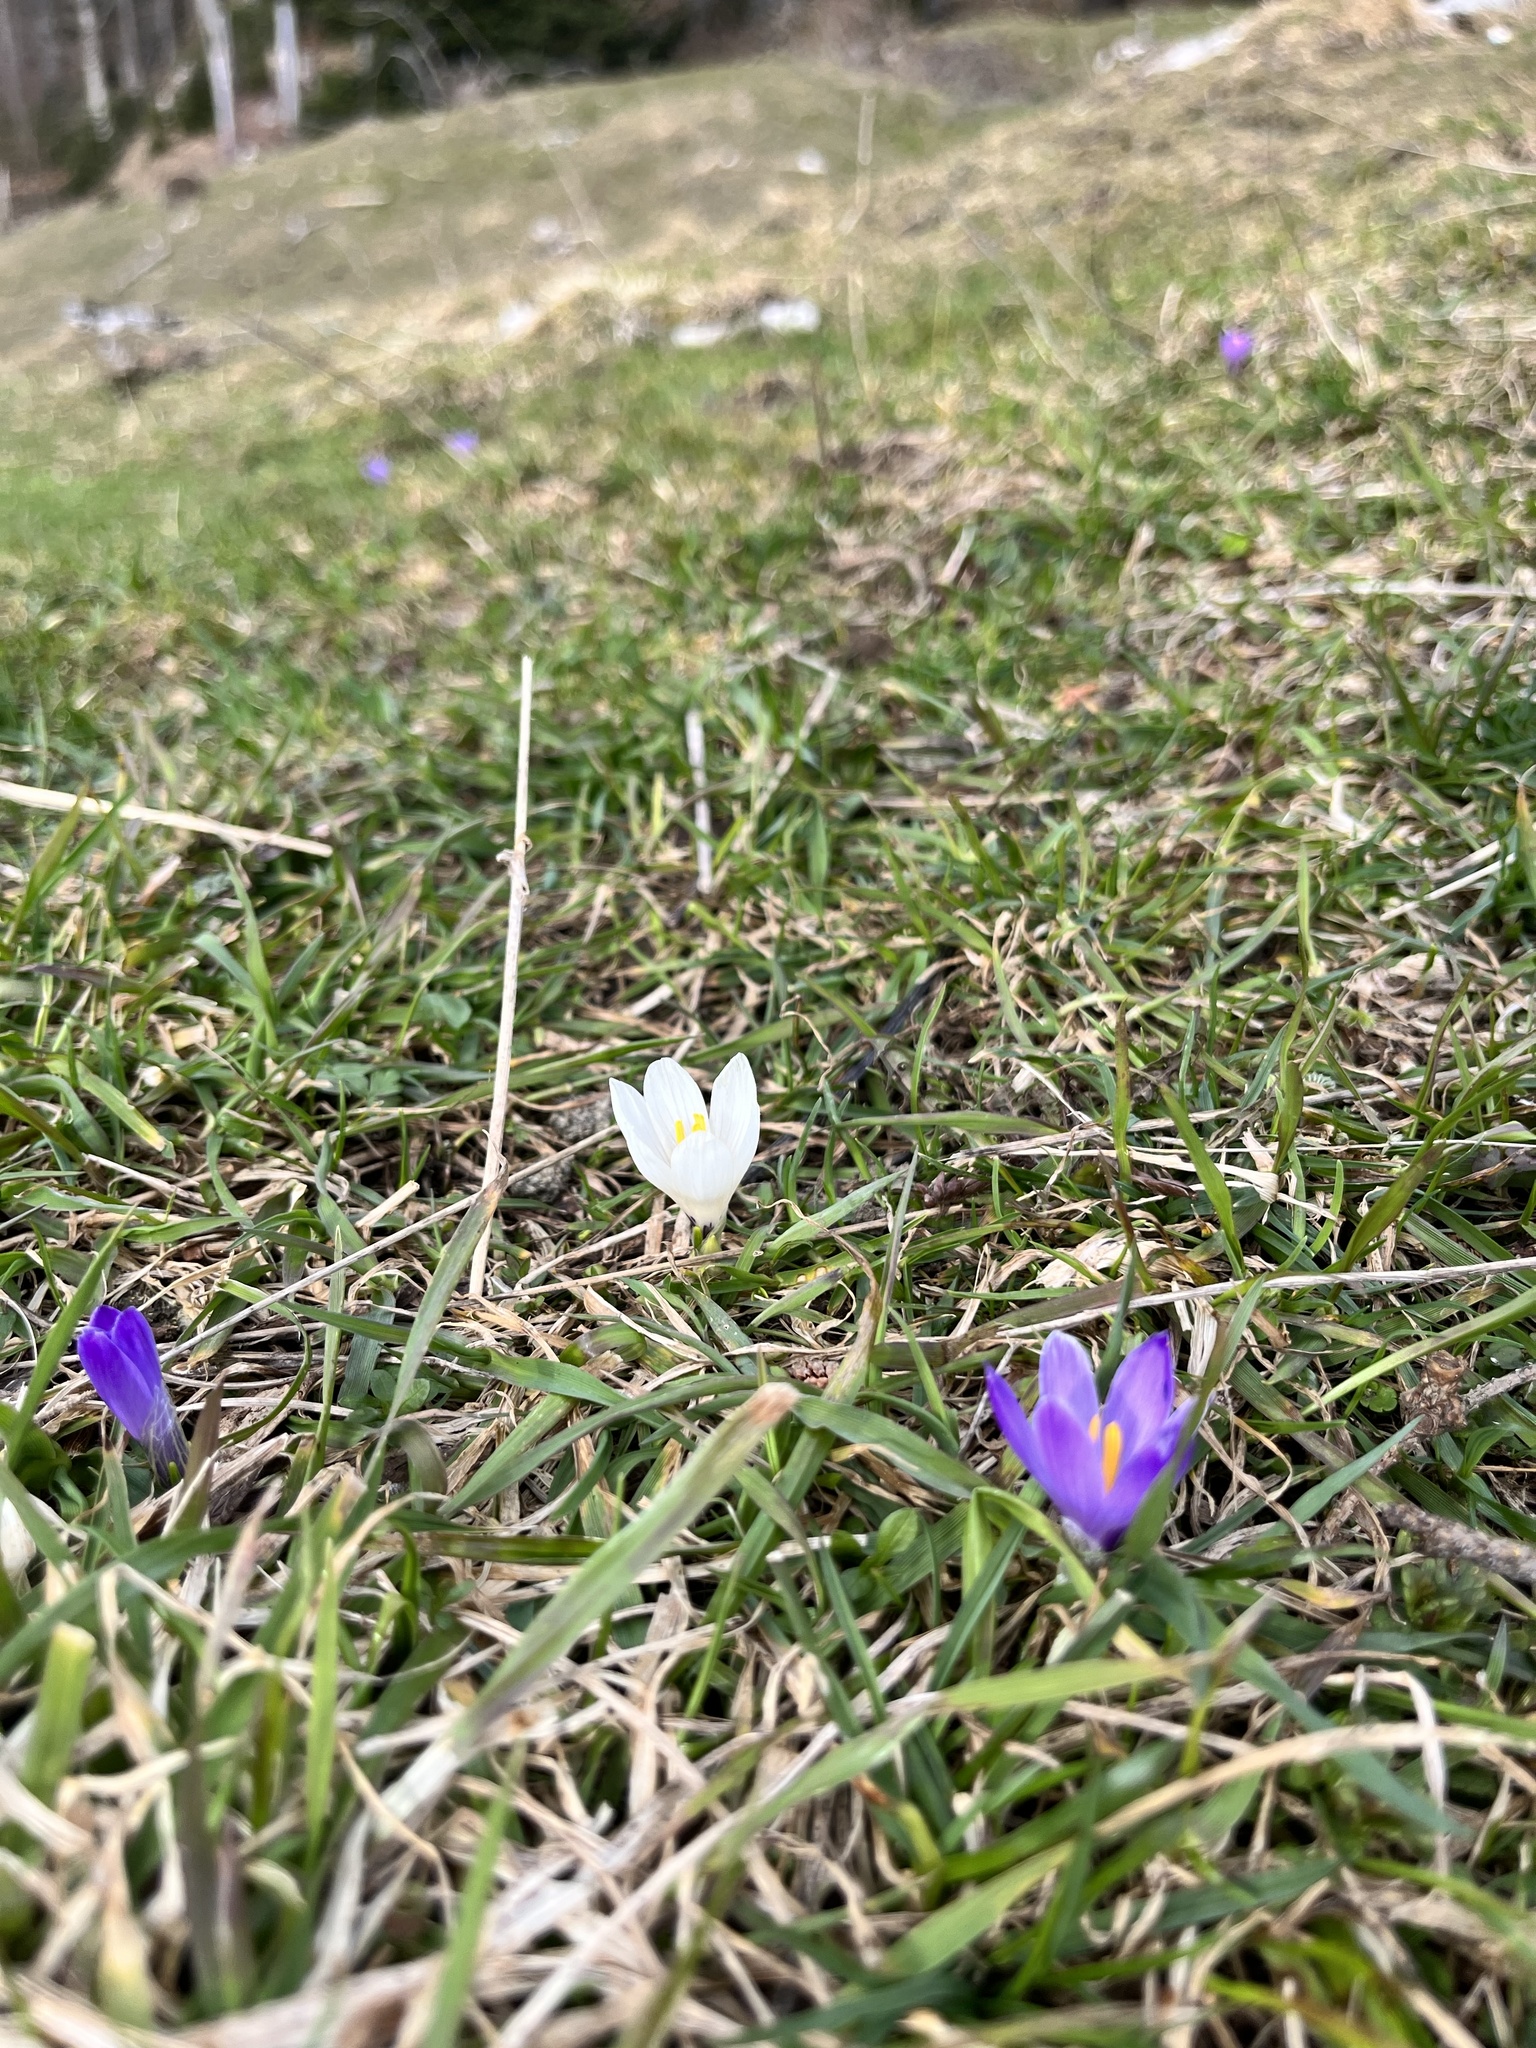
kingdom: Plantae
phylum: Tracheophyta
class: Liliopsida
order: Asparagales
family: Iridaceae
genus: Crocus
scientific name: Crocus vernus
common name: Spring crocus
